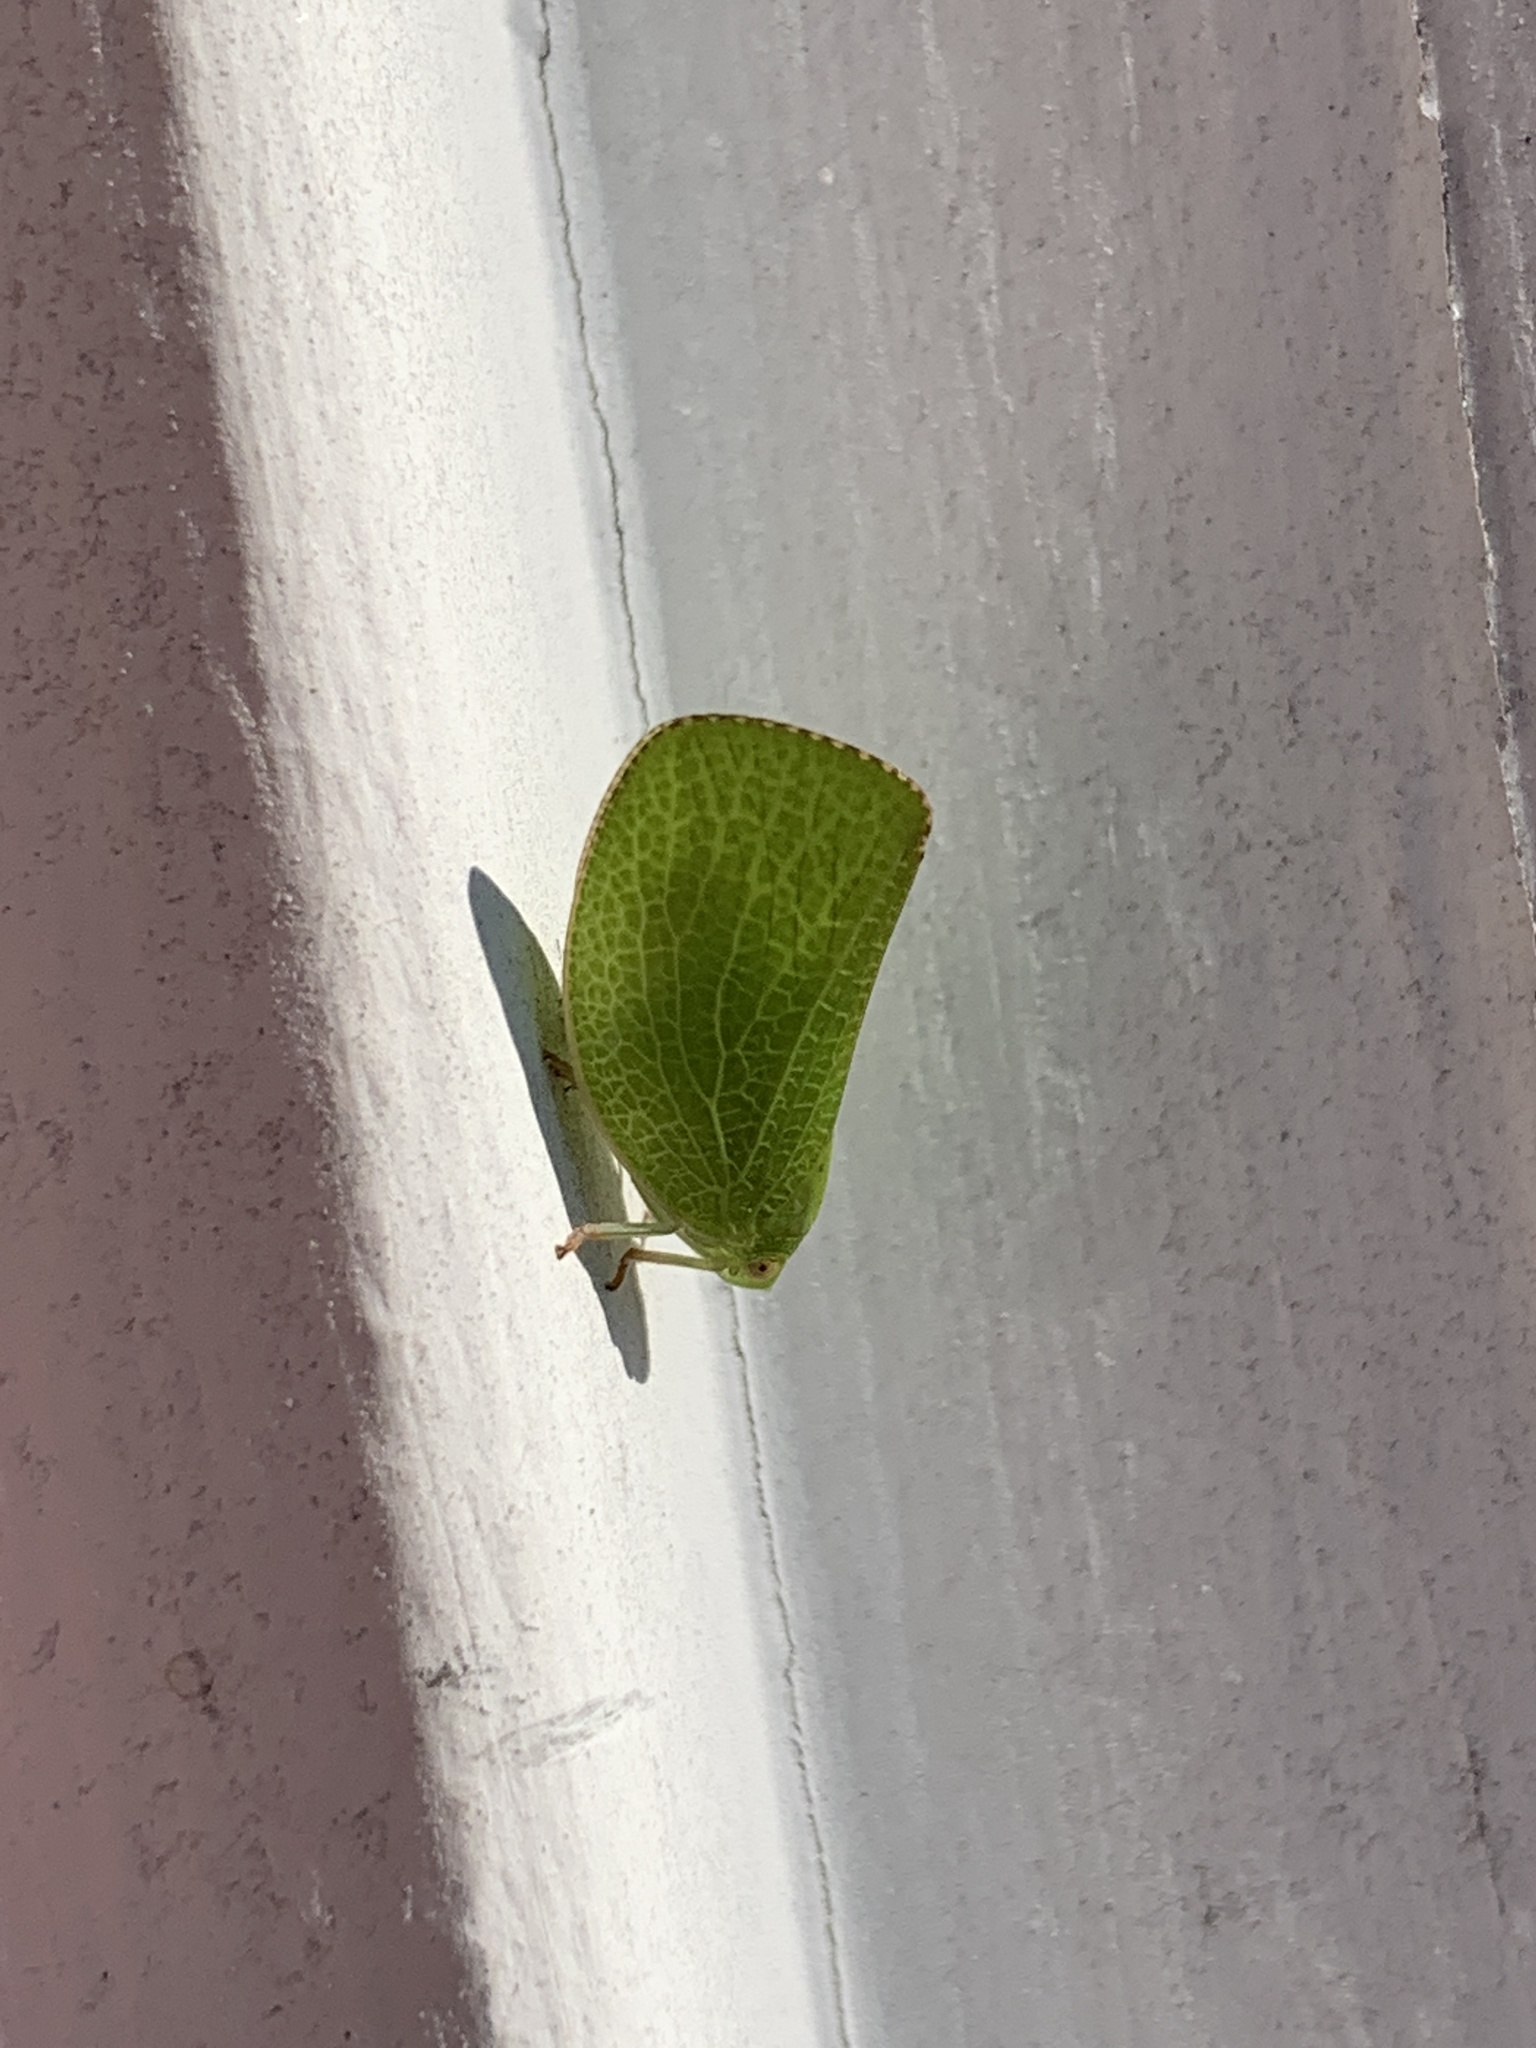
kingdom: Animalia
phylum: Arthropoda
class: Insecta
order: Hemiptera
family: Acanaloniidae
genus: Acanalonia
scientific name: Acanalonia conica
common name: Green cone-headed planthopper
